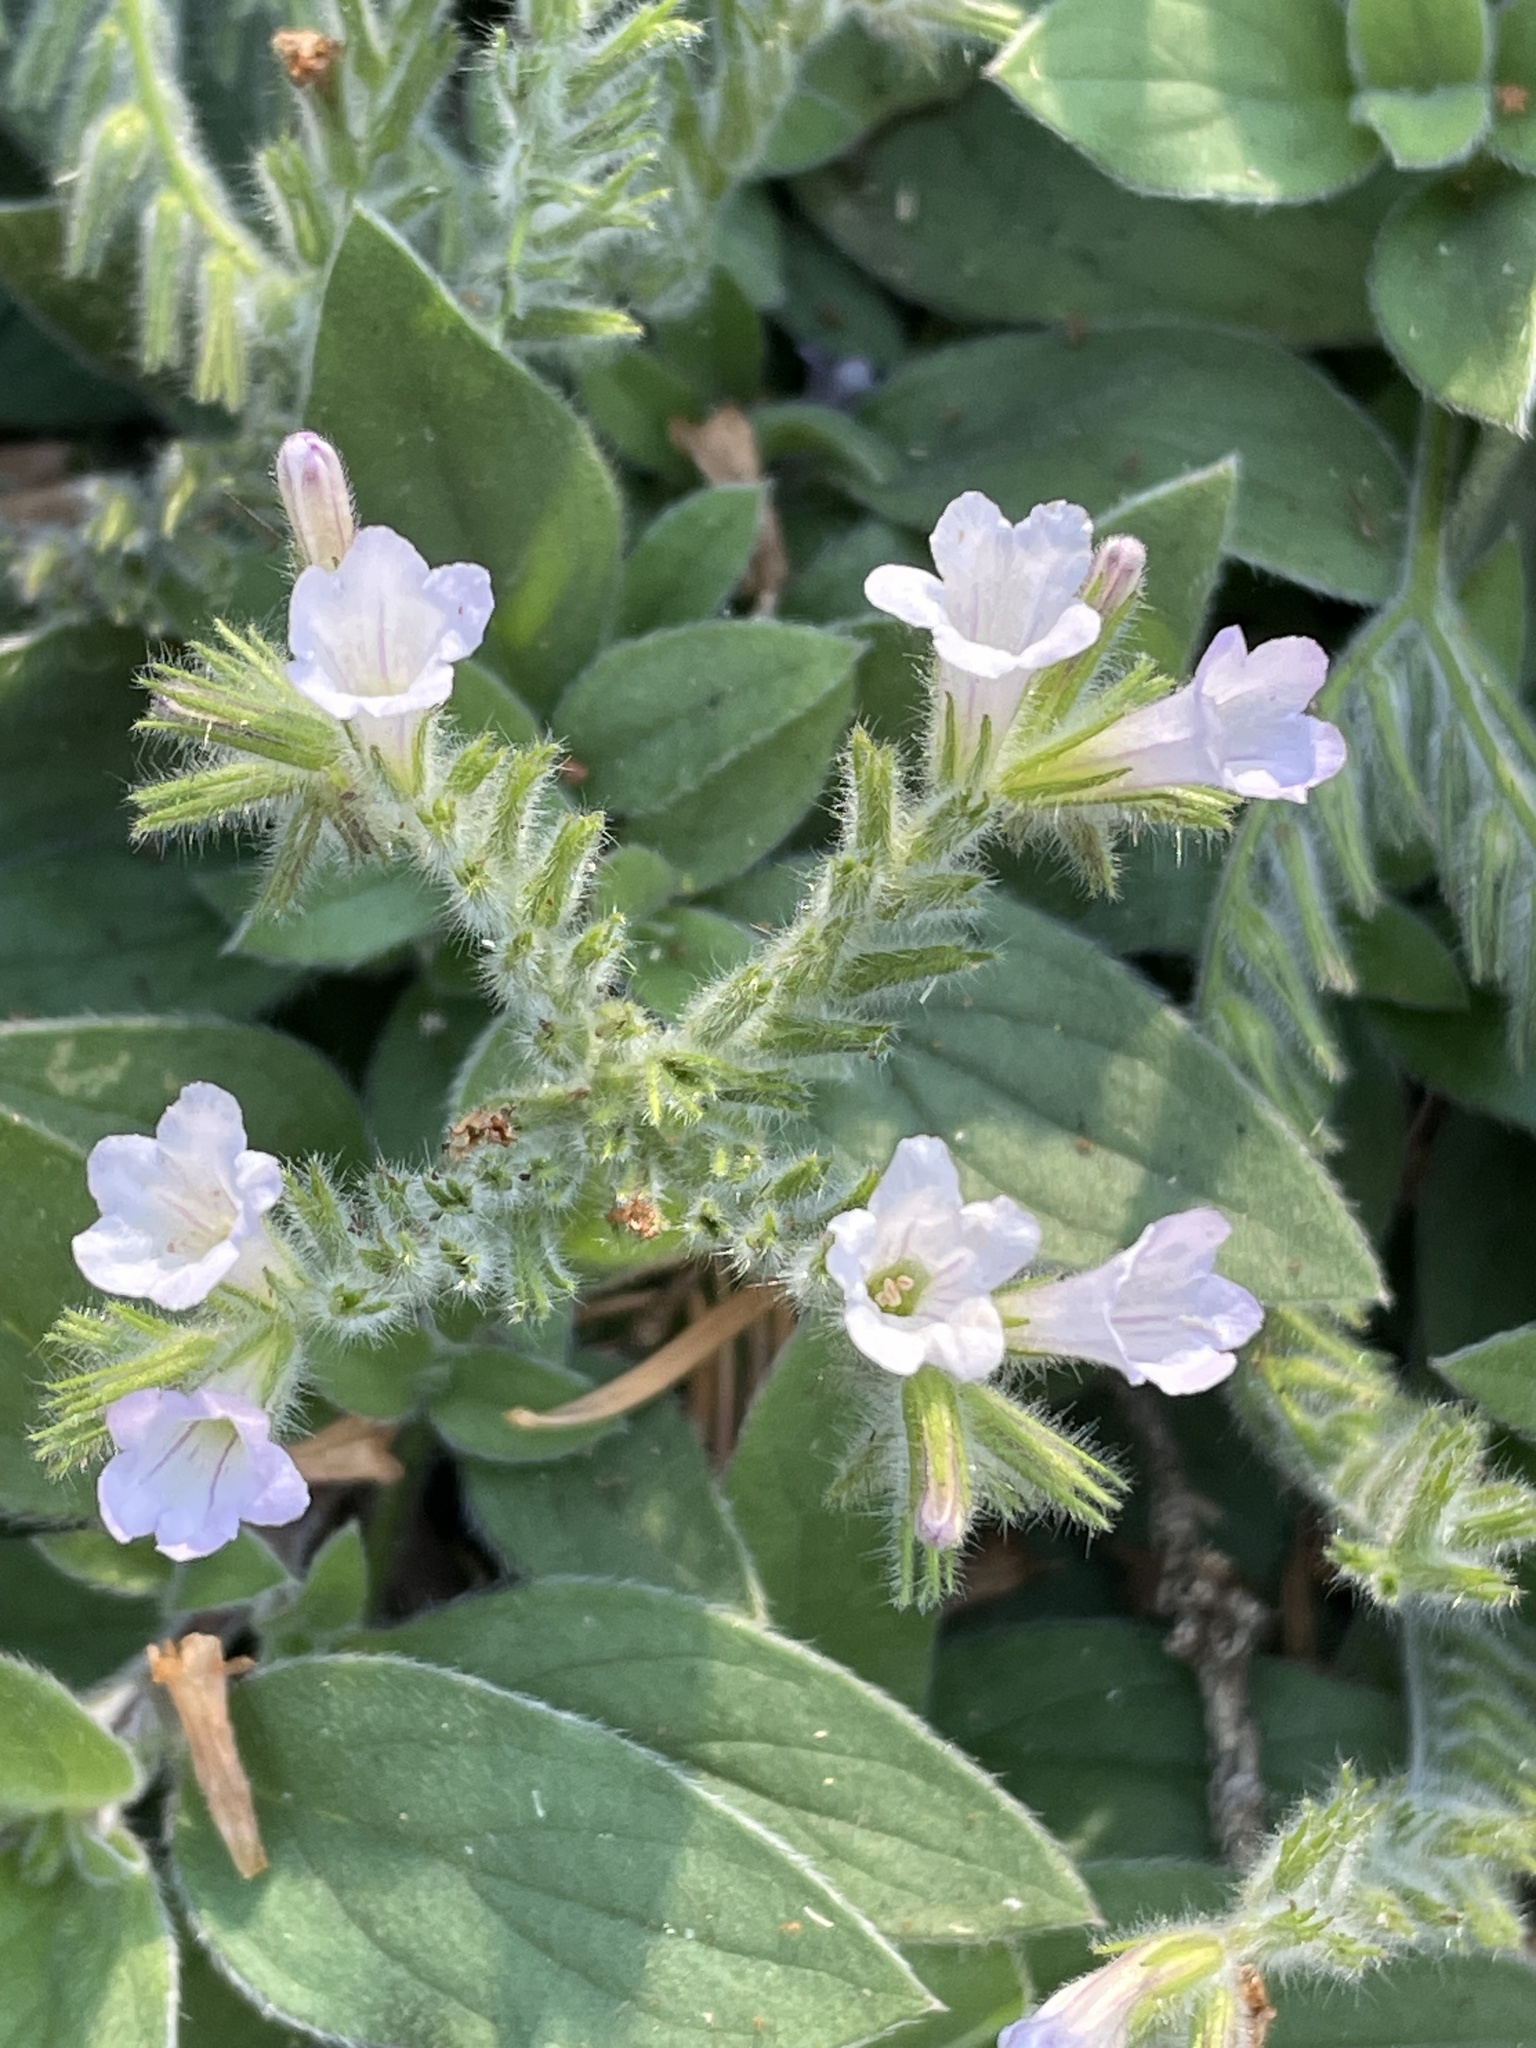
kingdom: Plantae
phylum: Tracheophyta
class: Magnoliopsida
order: Boraginales
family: Hydrophyllaceae
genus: Draperia
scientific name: Draperia systyla
